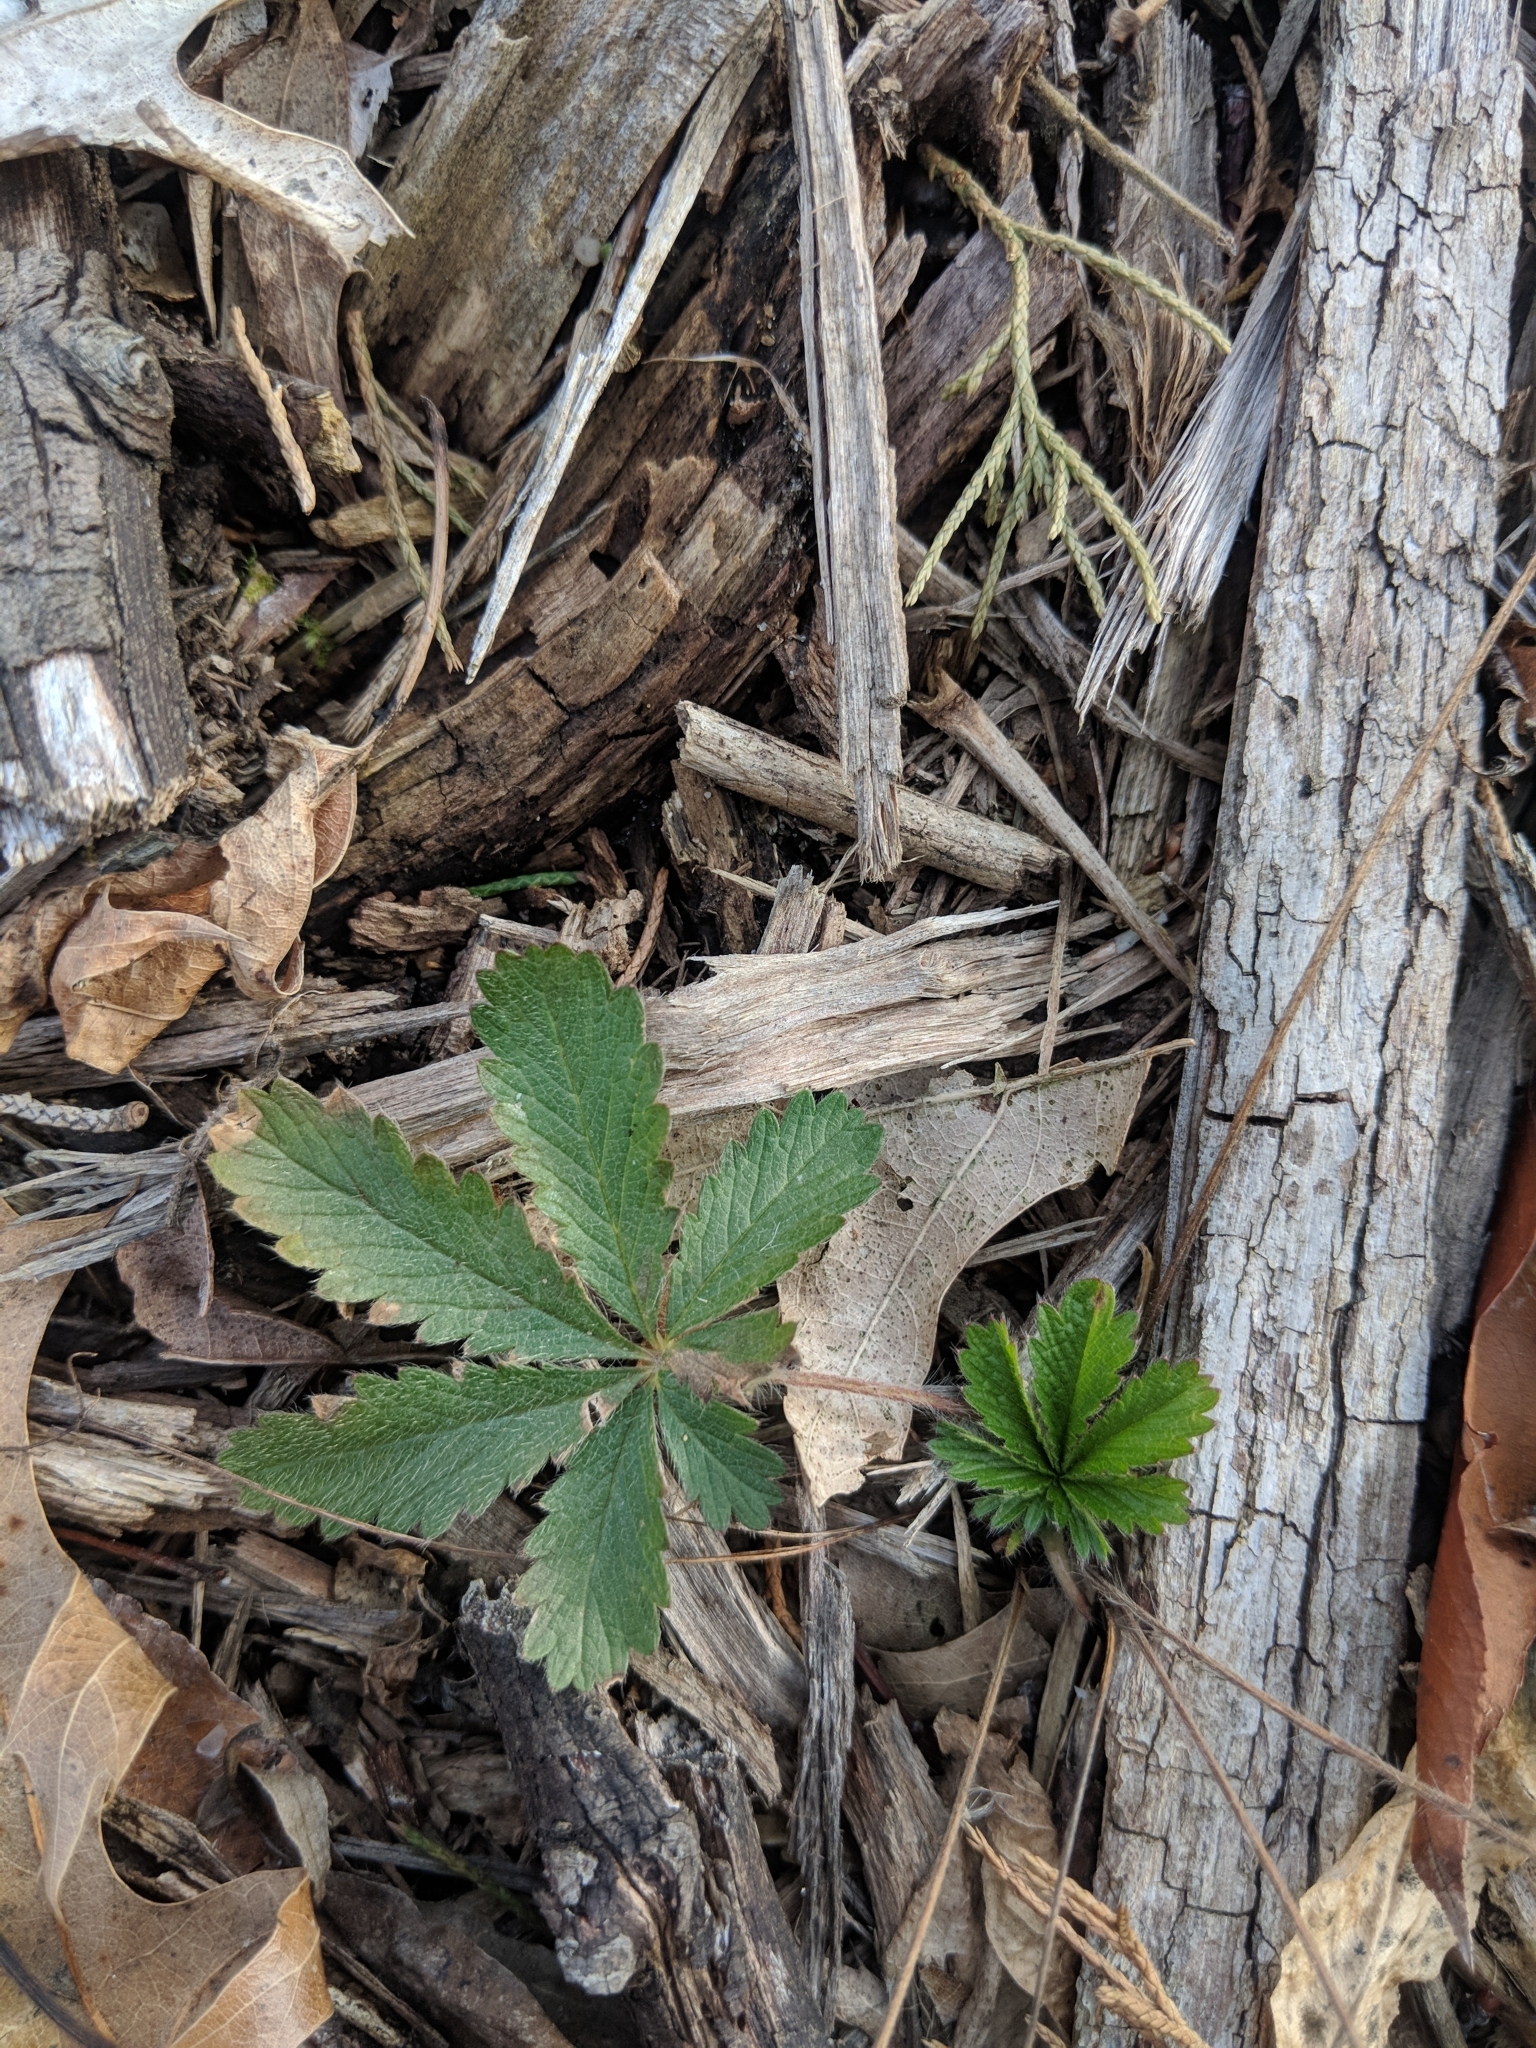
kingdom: Plantae
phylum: Tracheophyta
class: Magnoliopsida
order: Rosales
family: Rosaceae
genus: Potentilla
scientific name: Potentilla simplex
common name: Old field cinquefoil
